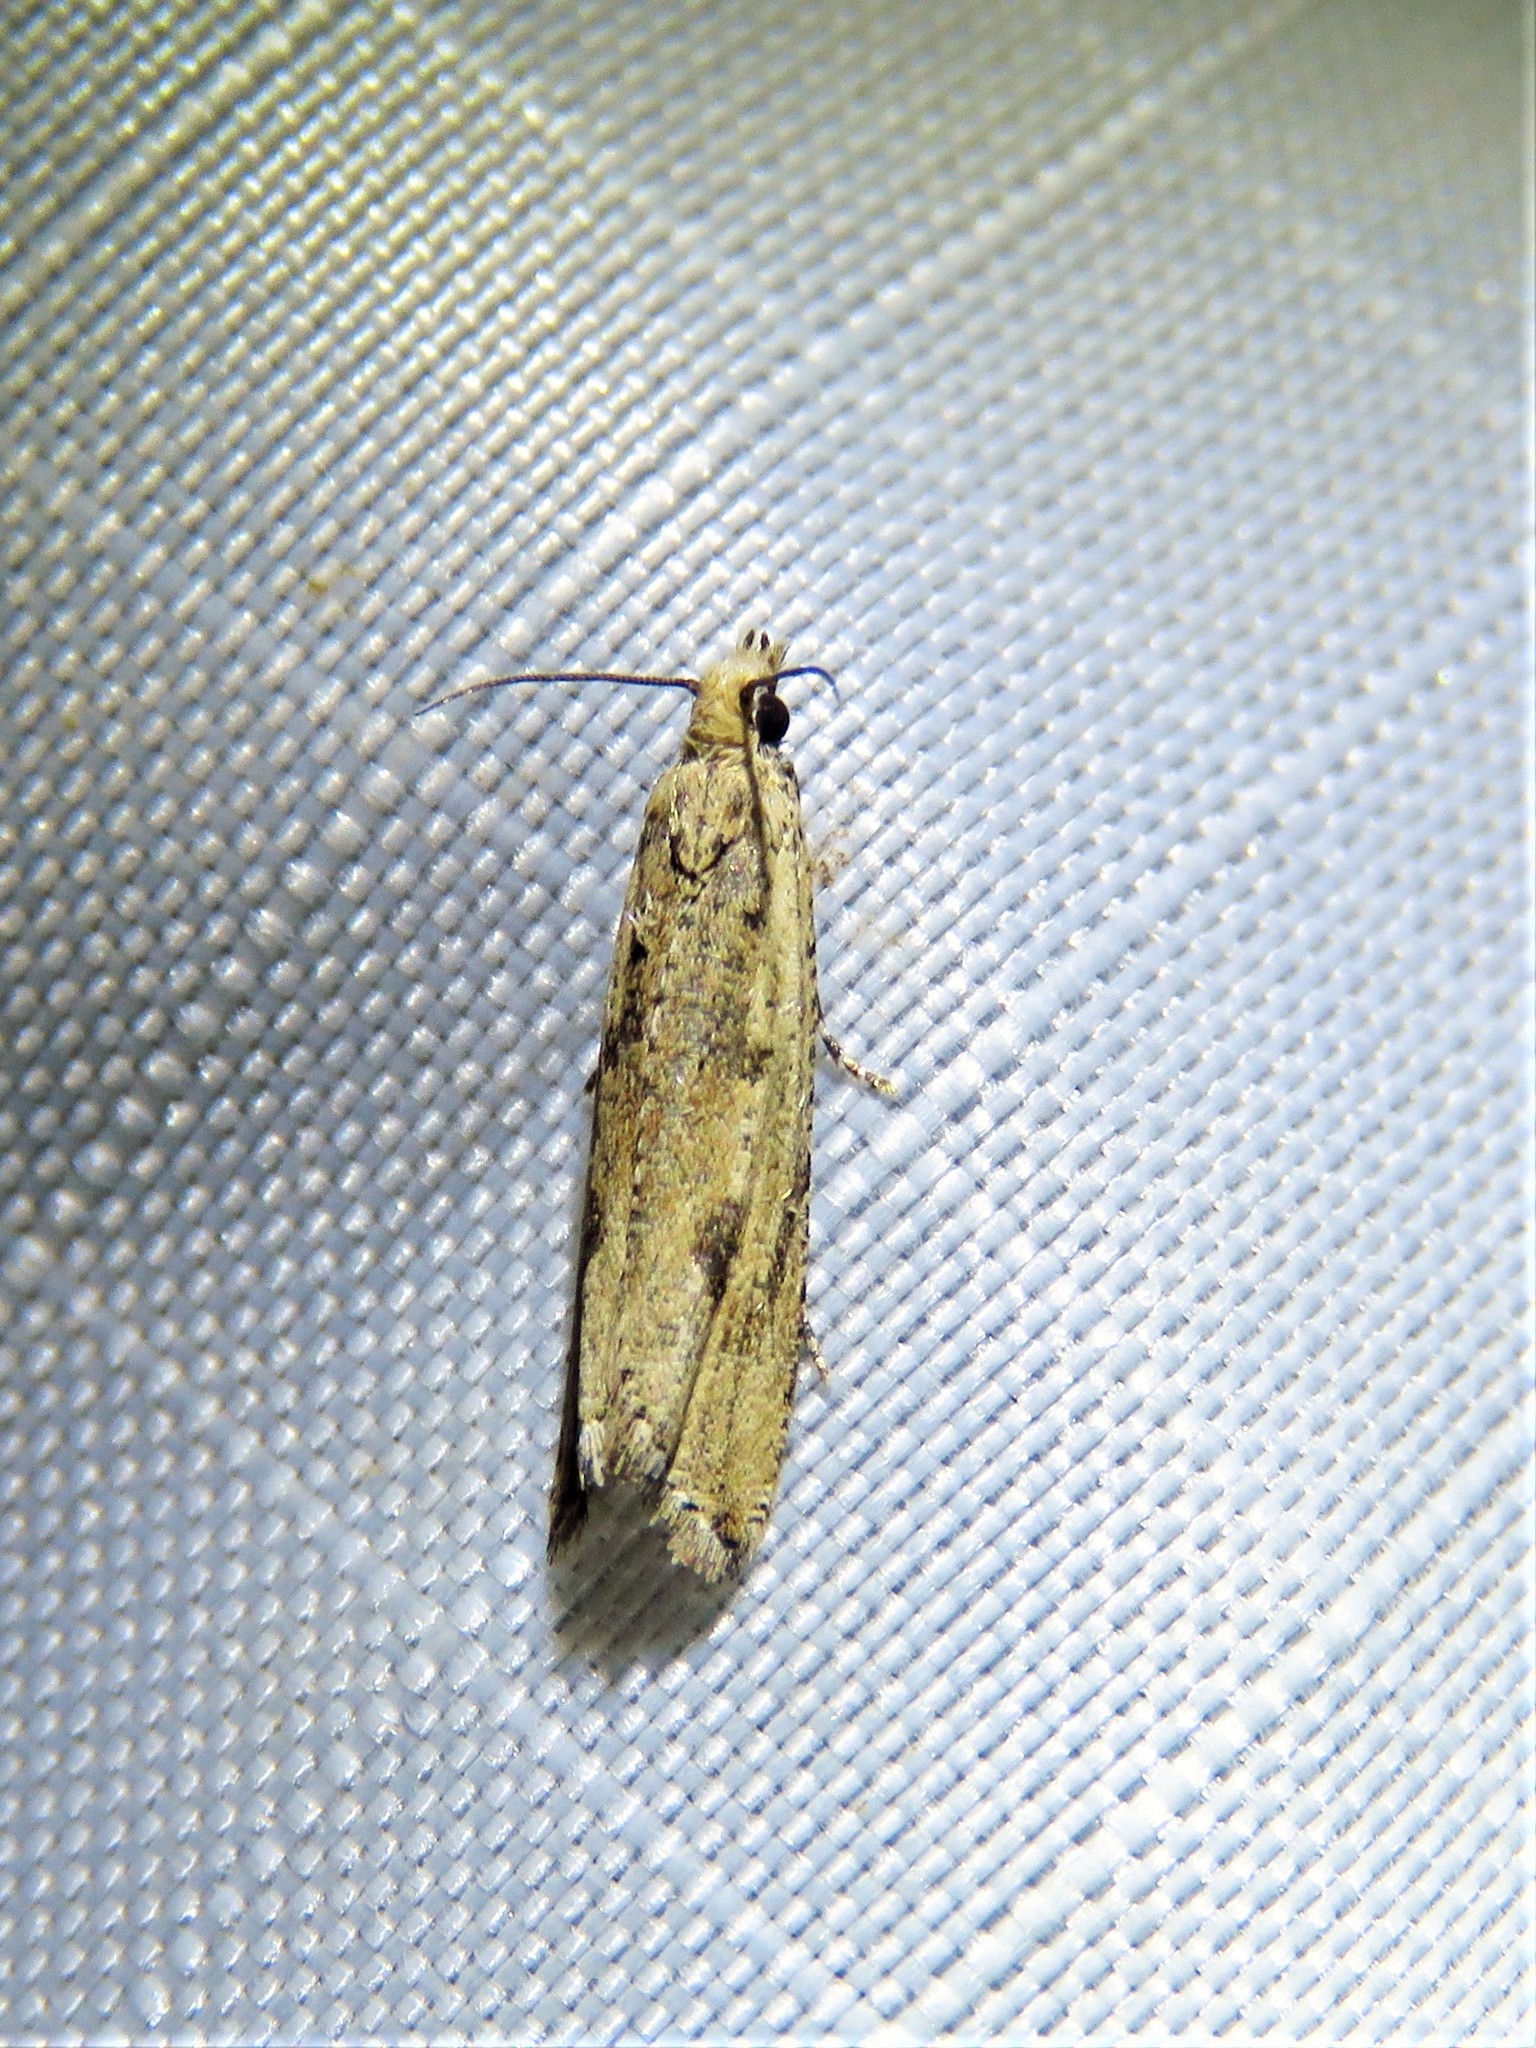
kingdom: Animalia
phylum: Arthropoda
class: Insecta
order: Lepidoptera
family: Tortricidae
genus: Bactra
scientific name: Bactra verutana
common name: Javelin moth
